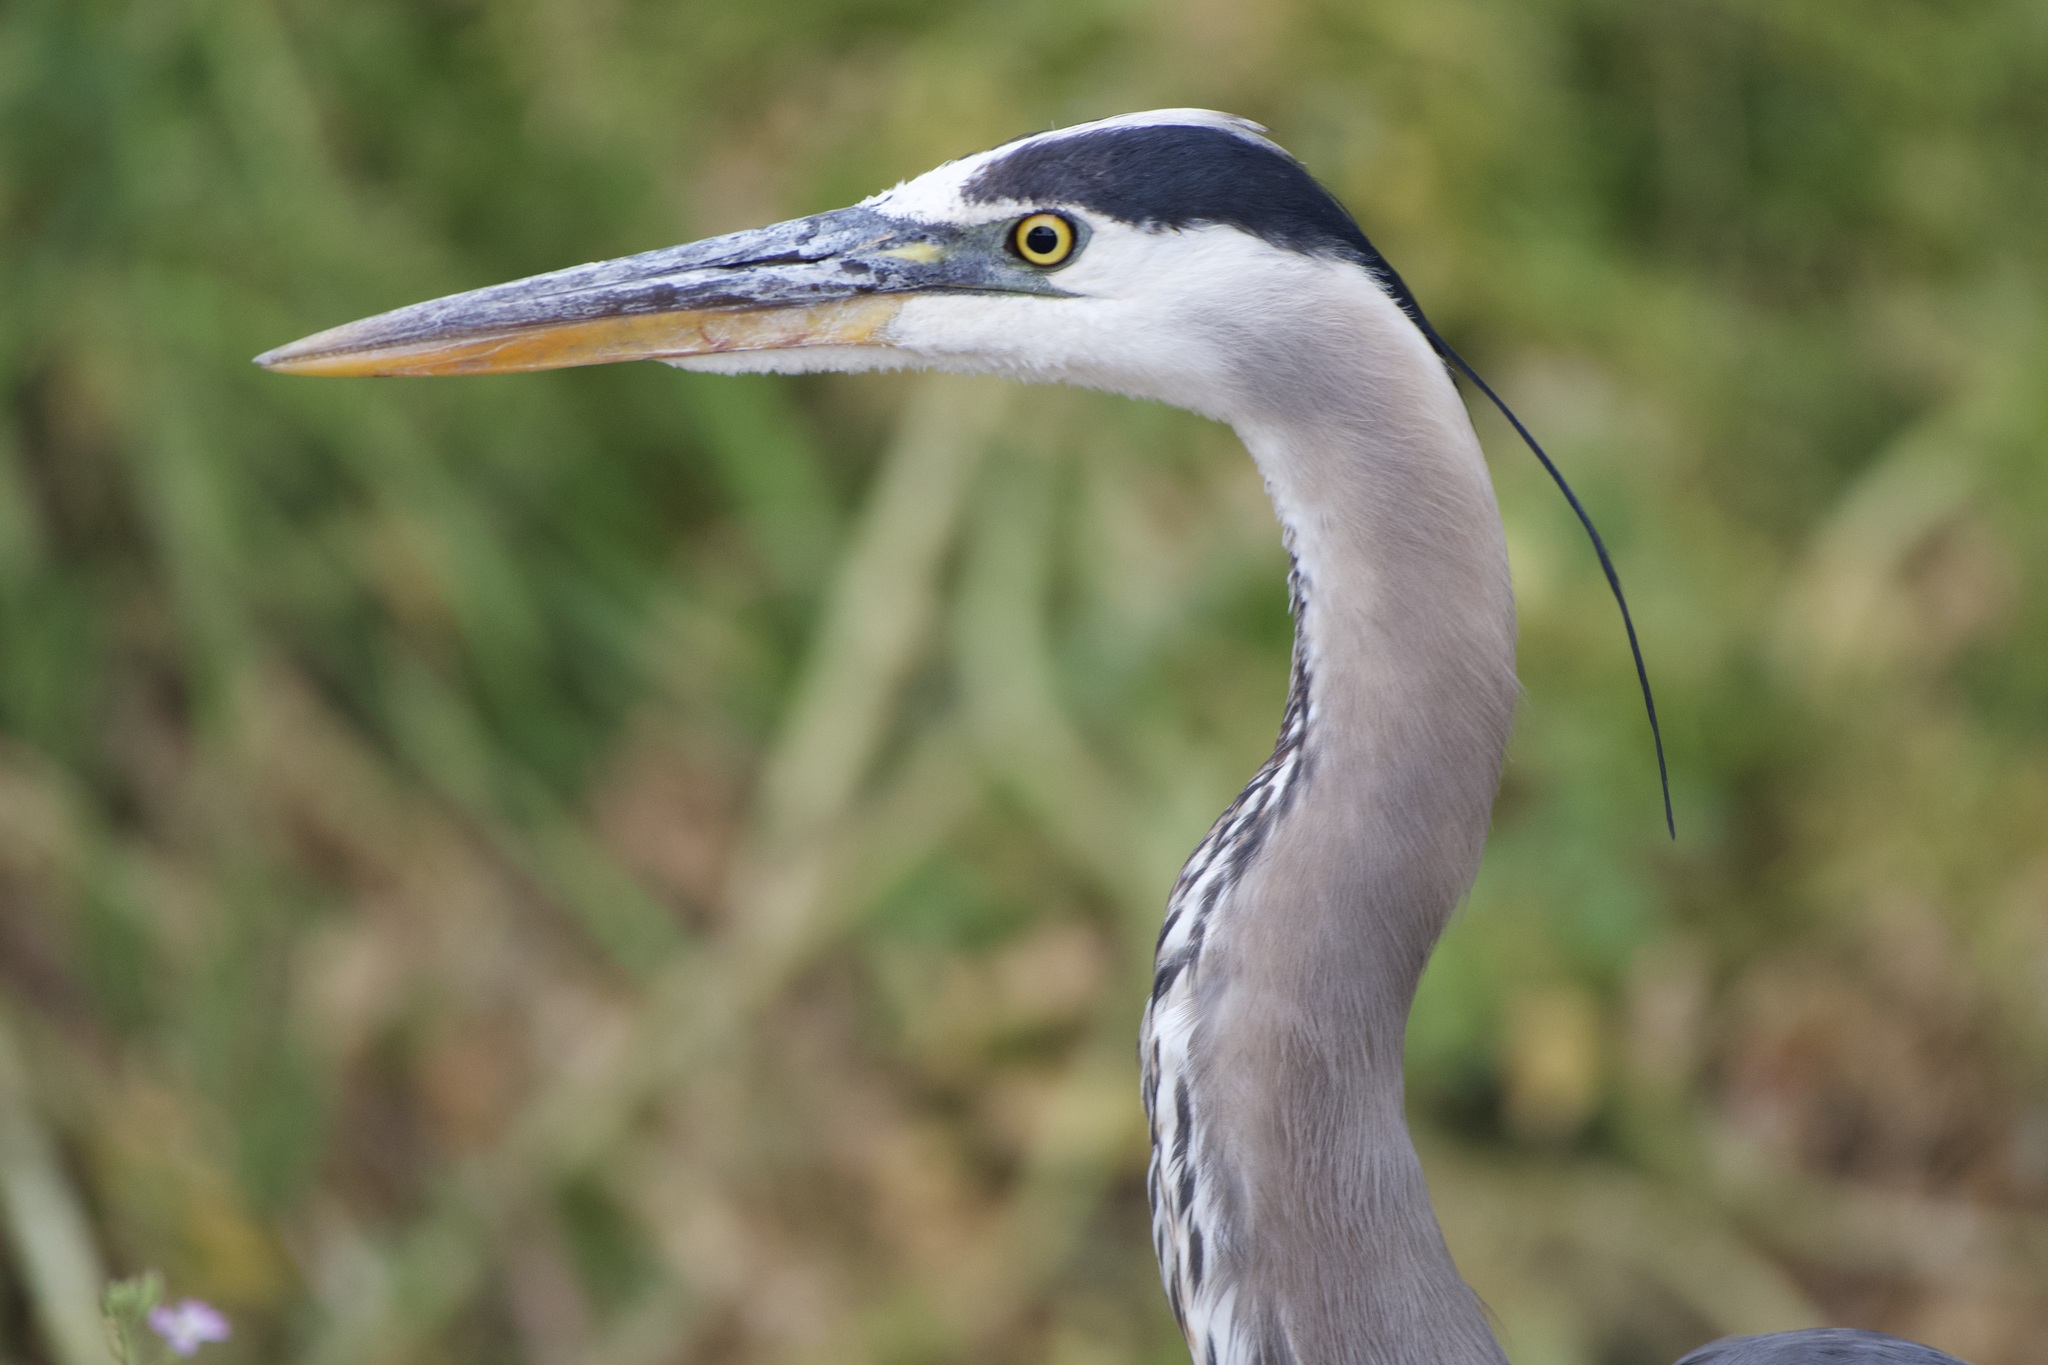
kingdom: Animalia
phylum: Chordata
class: Aves
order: Pelecaniformes
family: Ardeidae
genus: Ardea
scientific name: Ardea herodias
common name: Great blue heron
